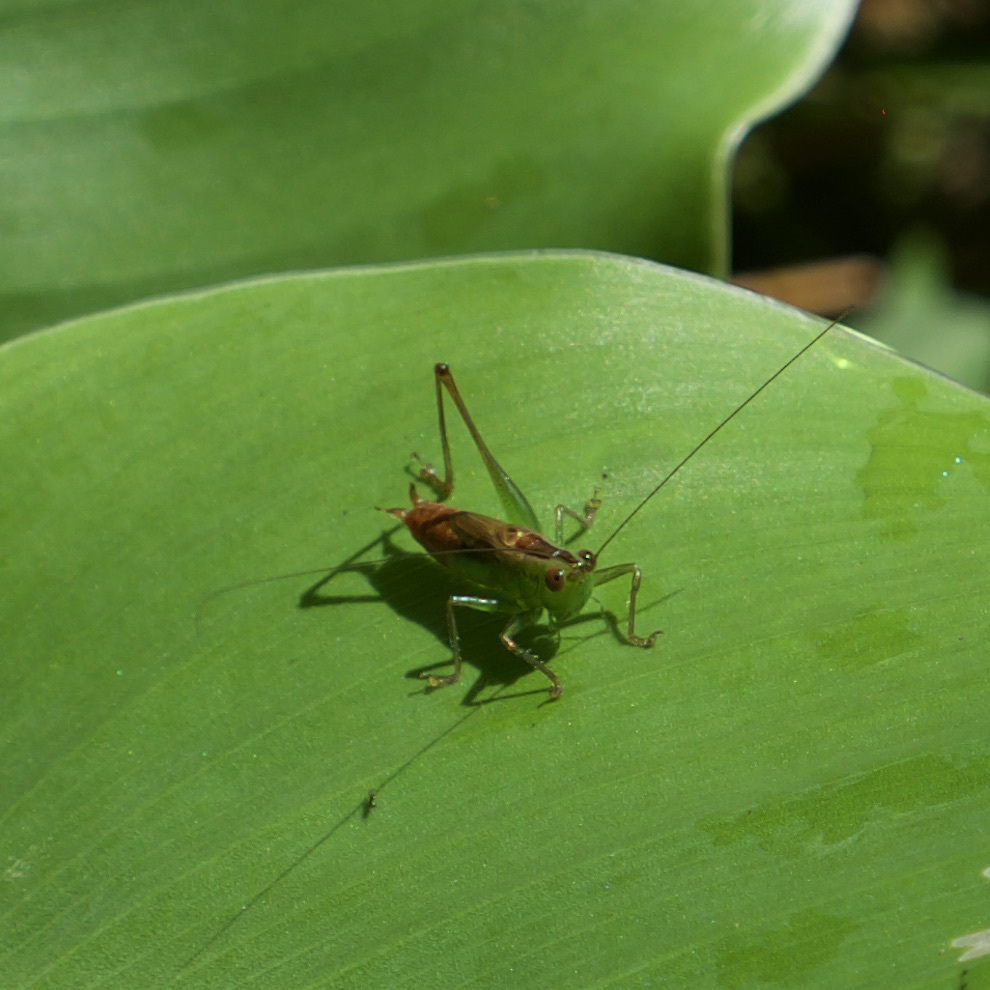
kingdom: Animalia
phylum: Arthropoda
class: Insecta
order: Orthoptera
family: Tettigoniidae
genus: Conocephalus
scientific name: Conocephalus saltator
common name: Katydid
